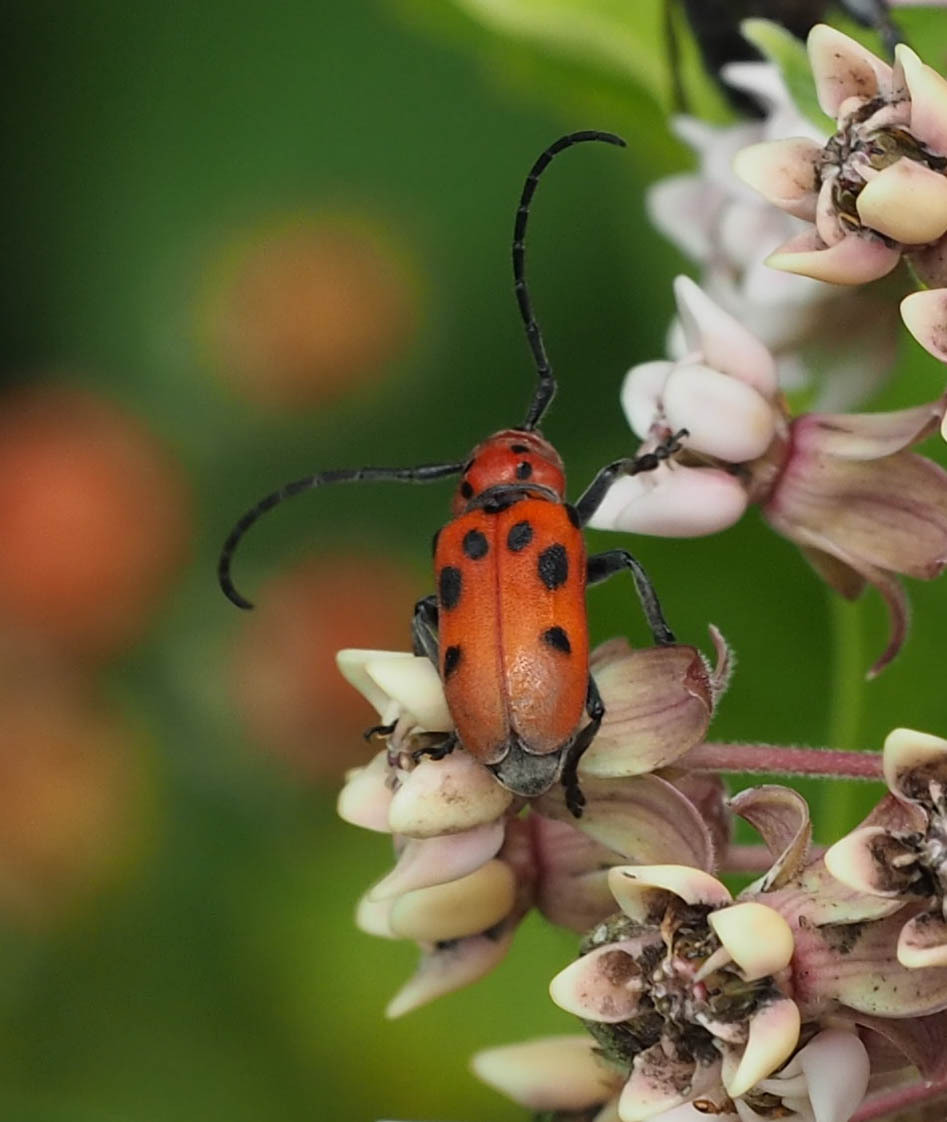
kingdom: Animalia
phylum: Arthropoda
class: Insecta
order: Coleoptera
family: Cerambycidae
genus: Tetraopes
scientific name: Tetraopes tetrophthalmus
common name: Red milkweed beetle
